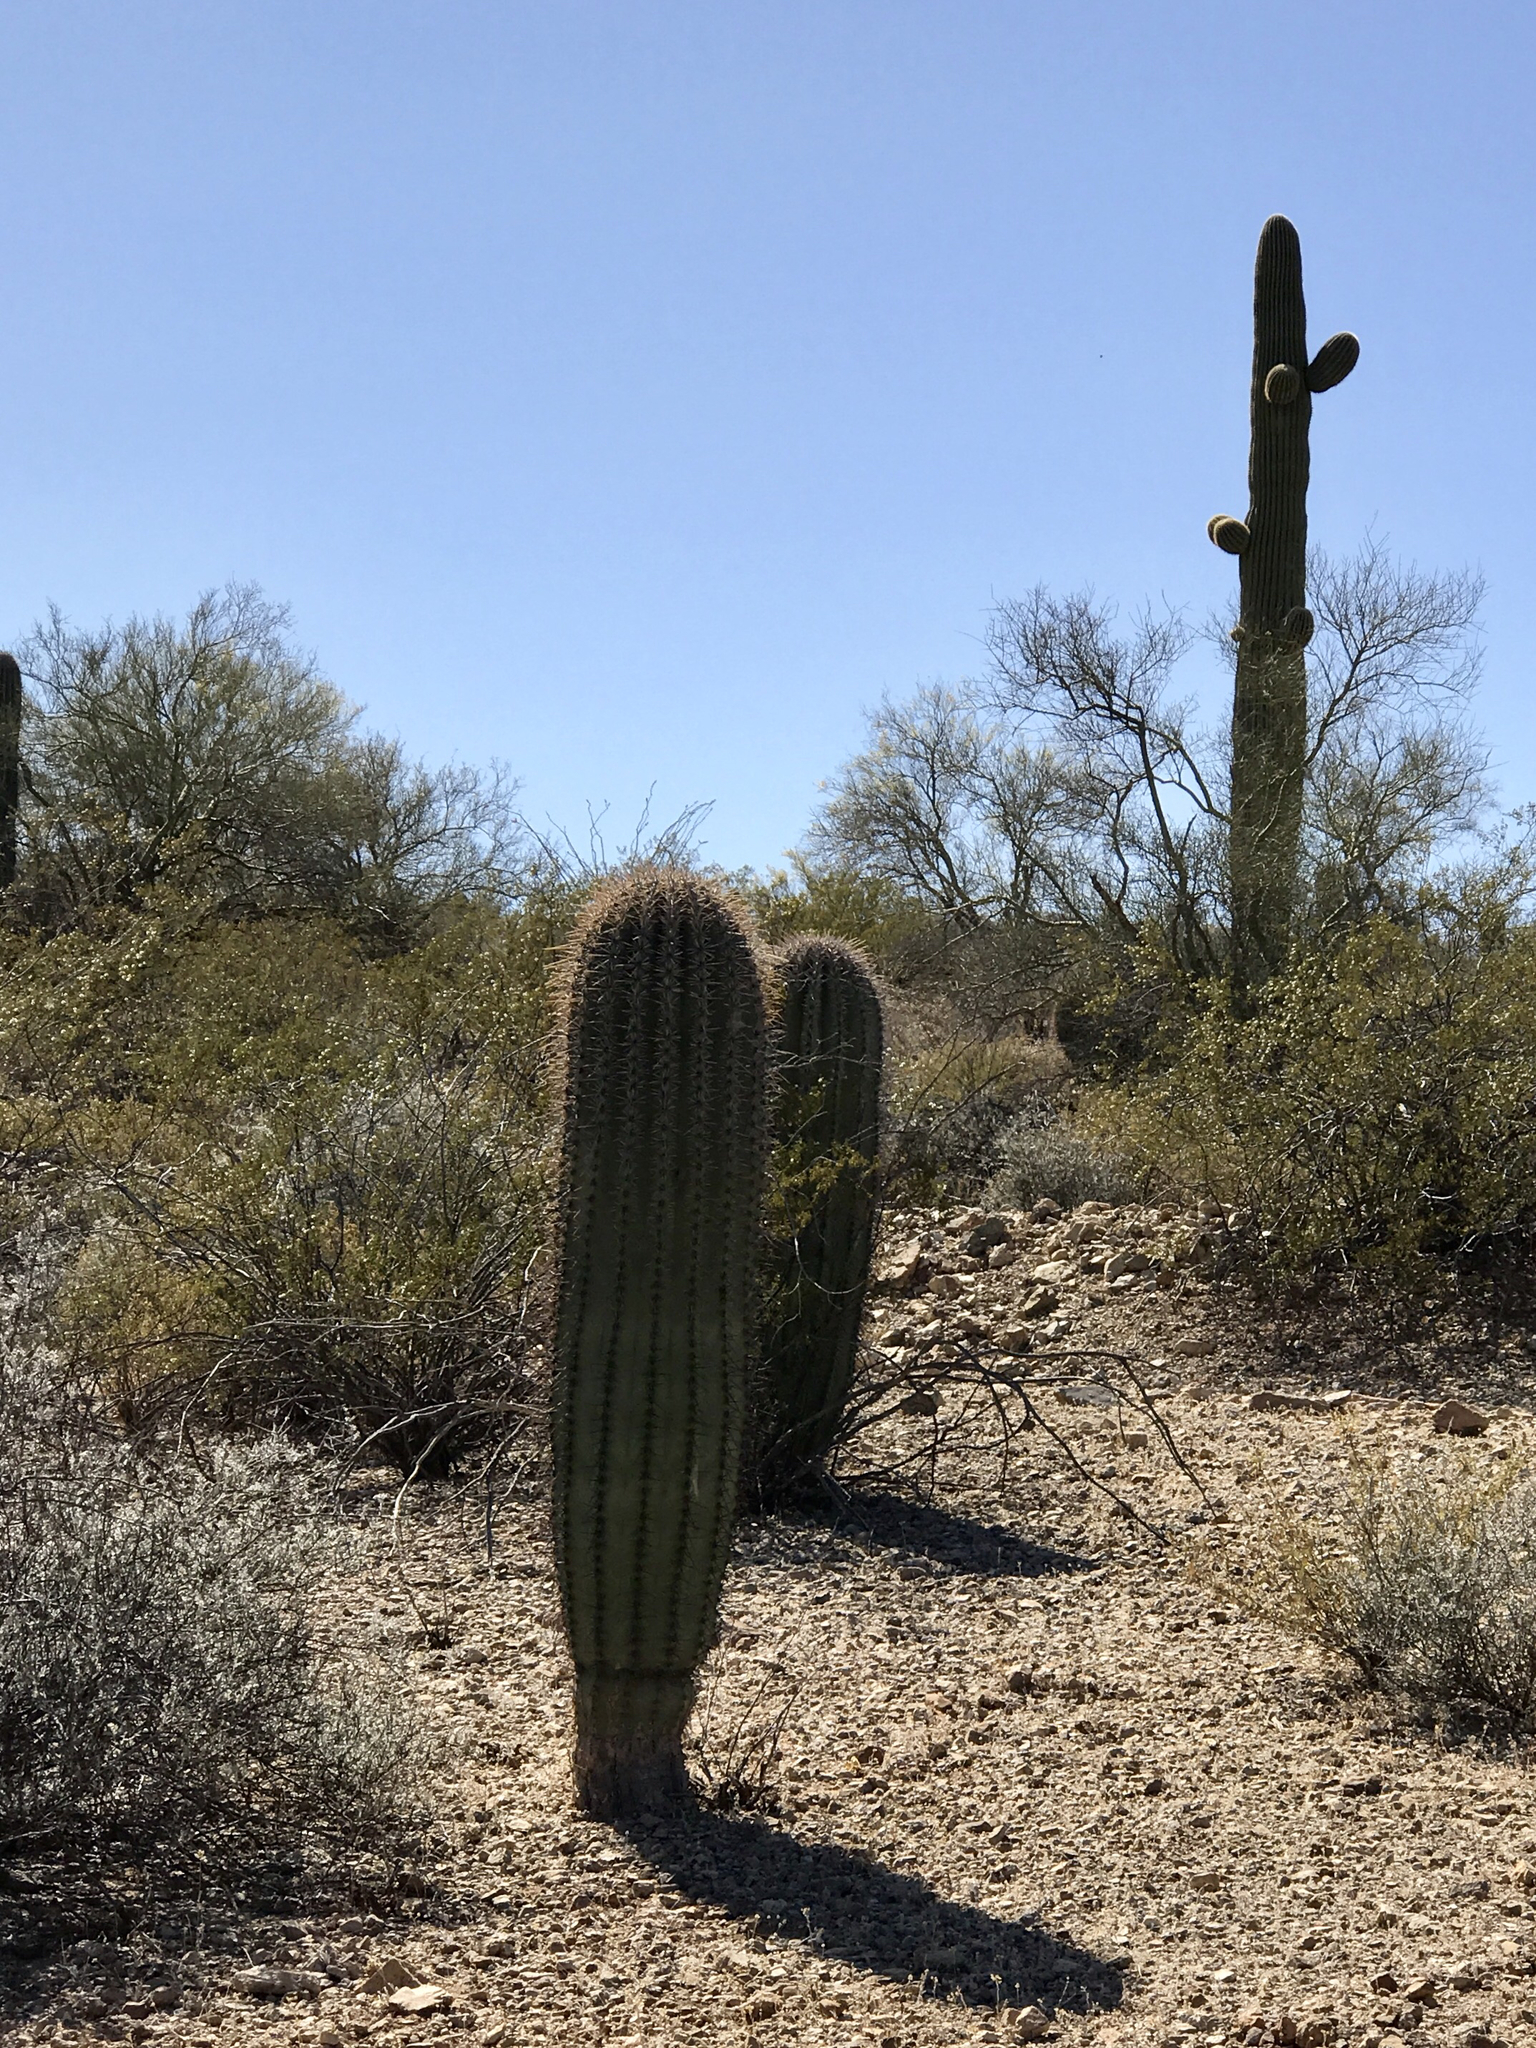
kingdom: Plantae
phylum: Tracheophyta
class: Magnoliopsida
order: Caryophyllales
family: Cactaceae
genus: Carnegiea
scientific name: Carnegiea gigantea
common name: Saguaro
